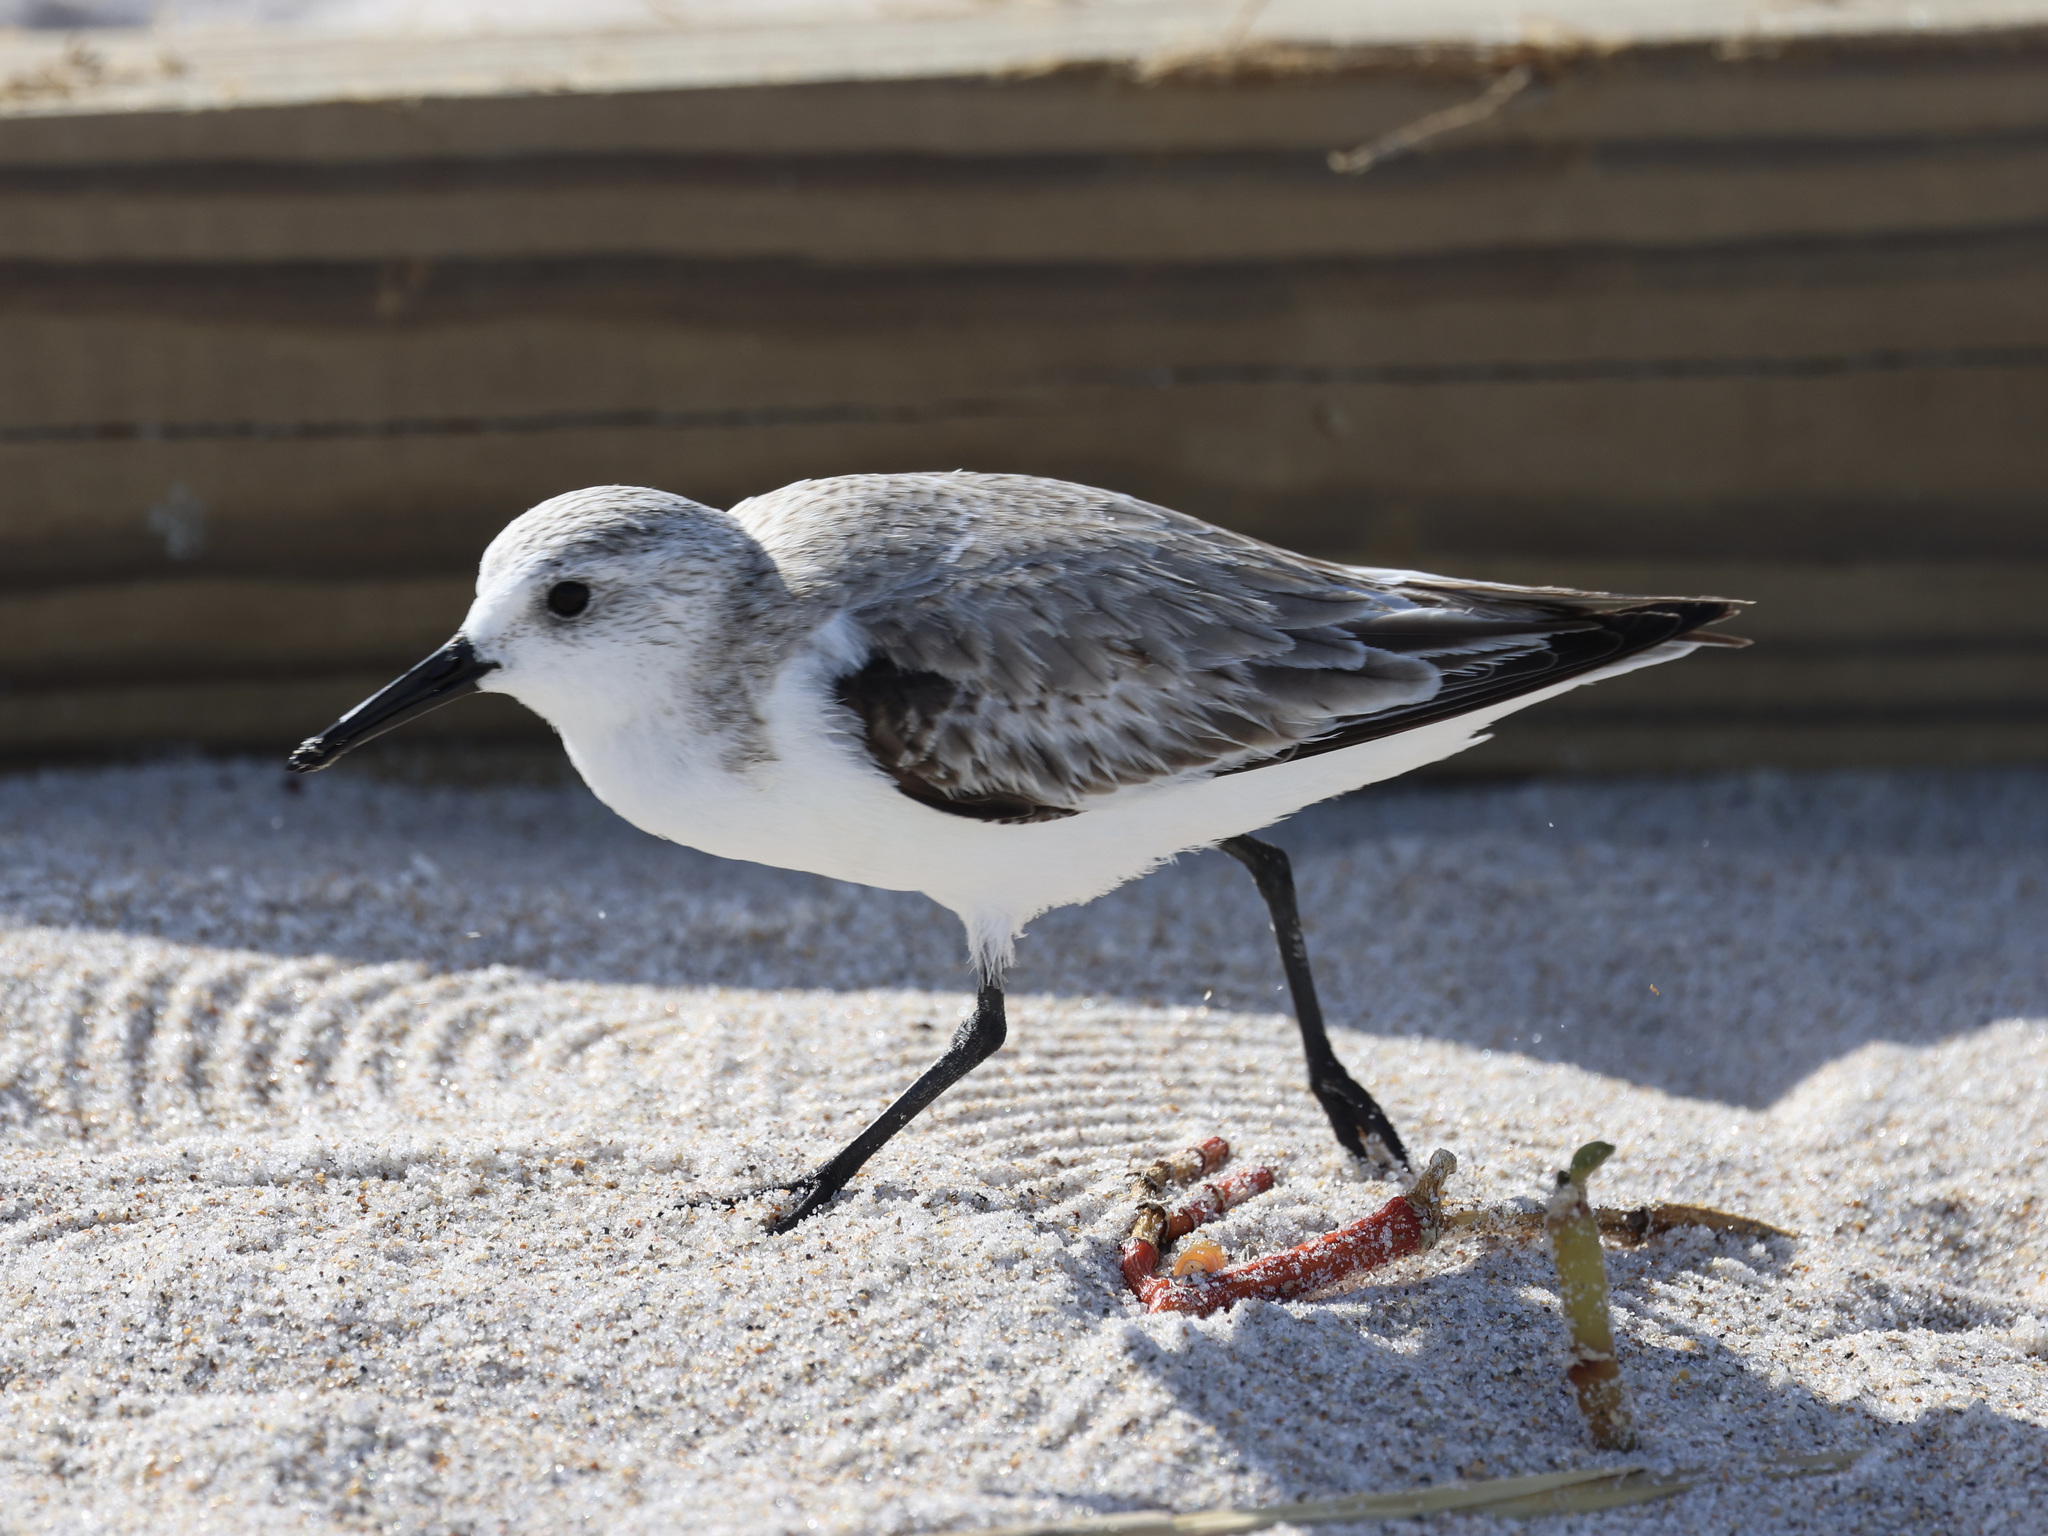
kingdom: Animalia
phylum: Chordata
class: Aves
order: Charadriiformes
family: Scolopacidae
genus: Calidris
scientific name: Calidris alba
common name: Sanderling
